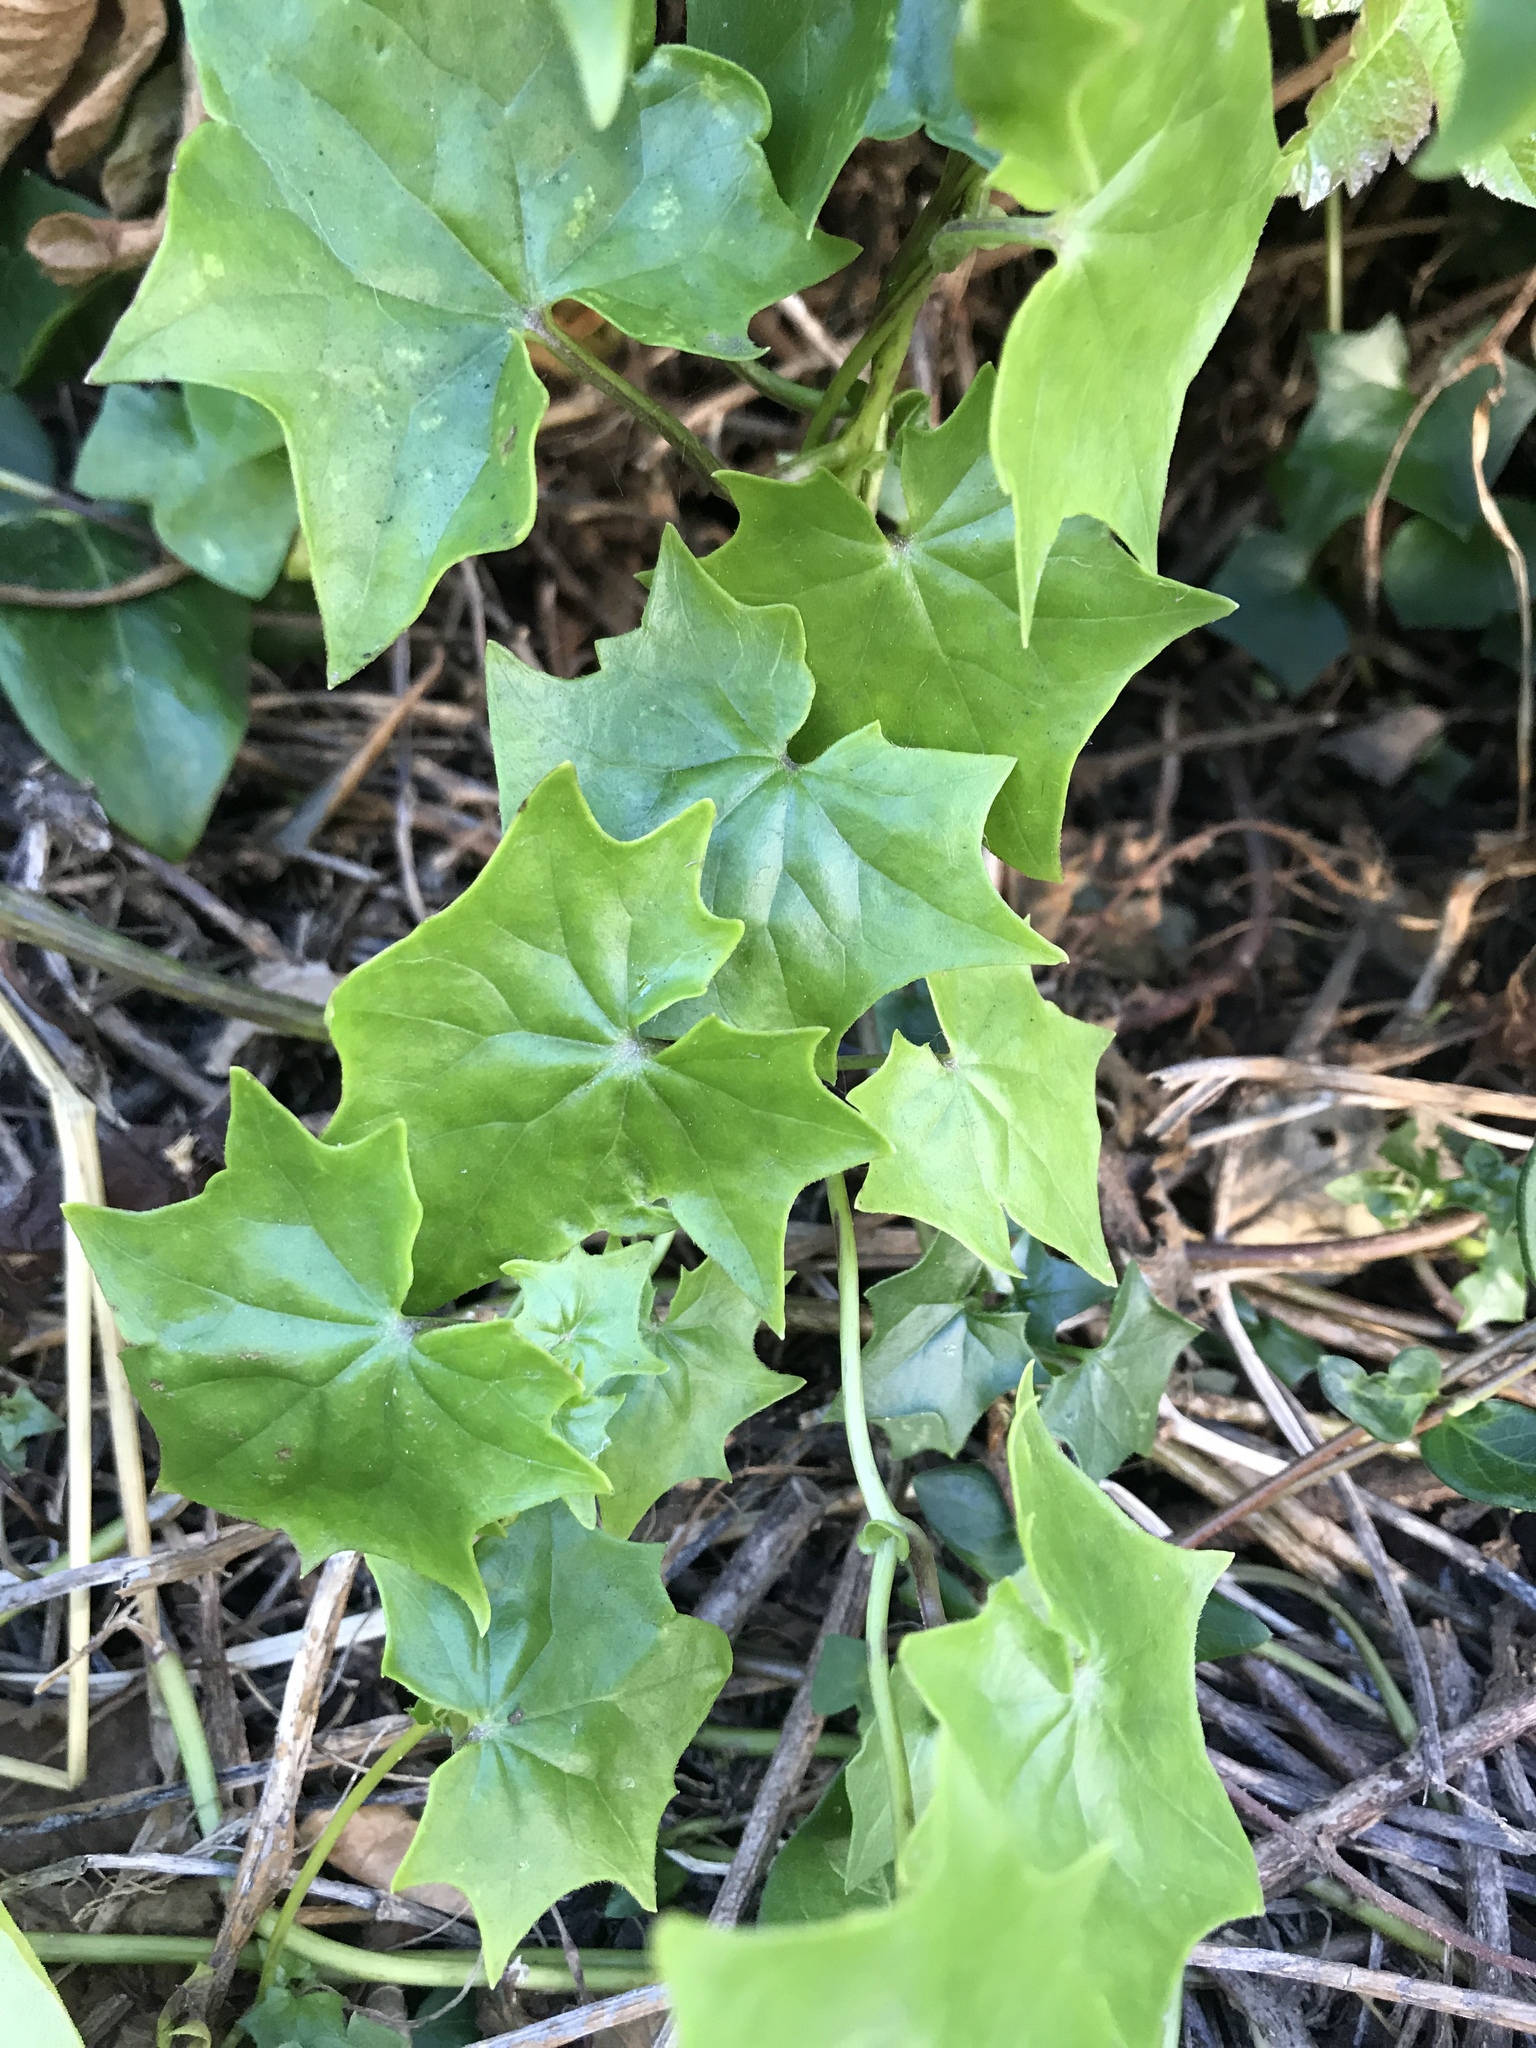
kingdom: Plantae
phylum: Tracheophyta
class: Magnoliopsida
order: Asterales
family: Asteraceae
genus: Delairea
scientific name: Delairea odorata
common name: Cape-ivy
